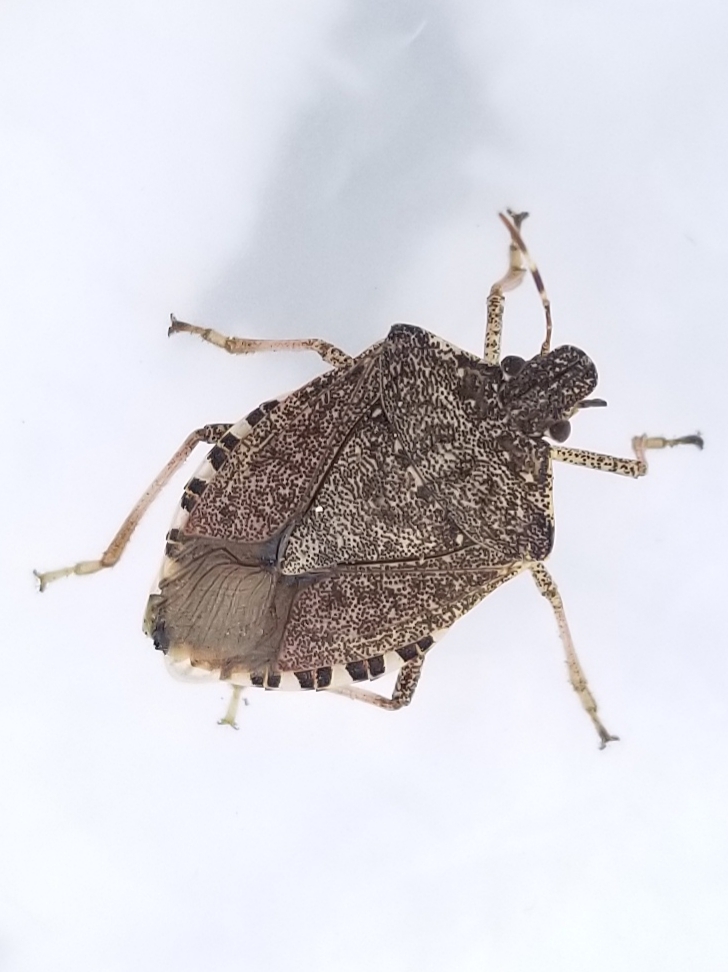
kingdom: Animalia
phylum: Arthropoda
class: Insecta
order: Hemiptera
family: Pentatomidae
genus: Halyomorpha
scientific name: Halyomorpha halys
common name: Brown marmorated stink bug
